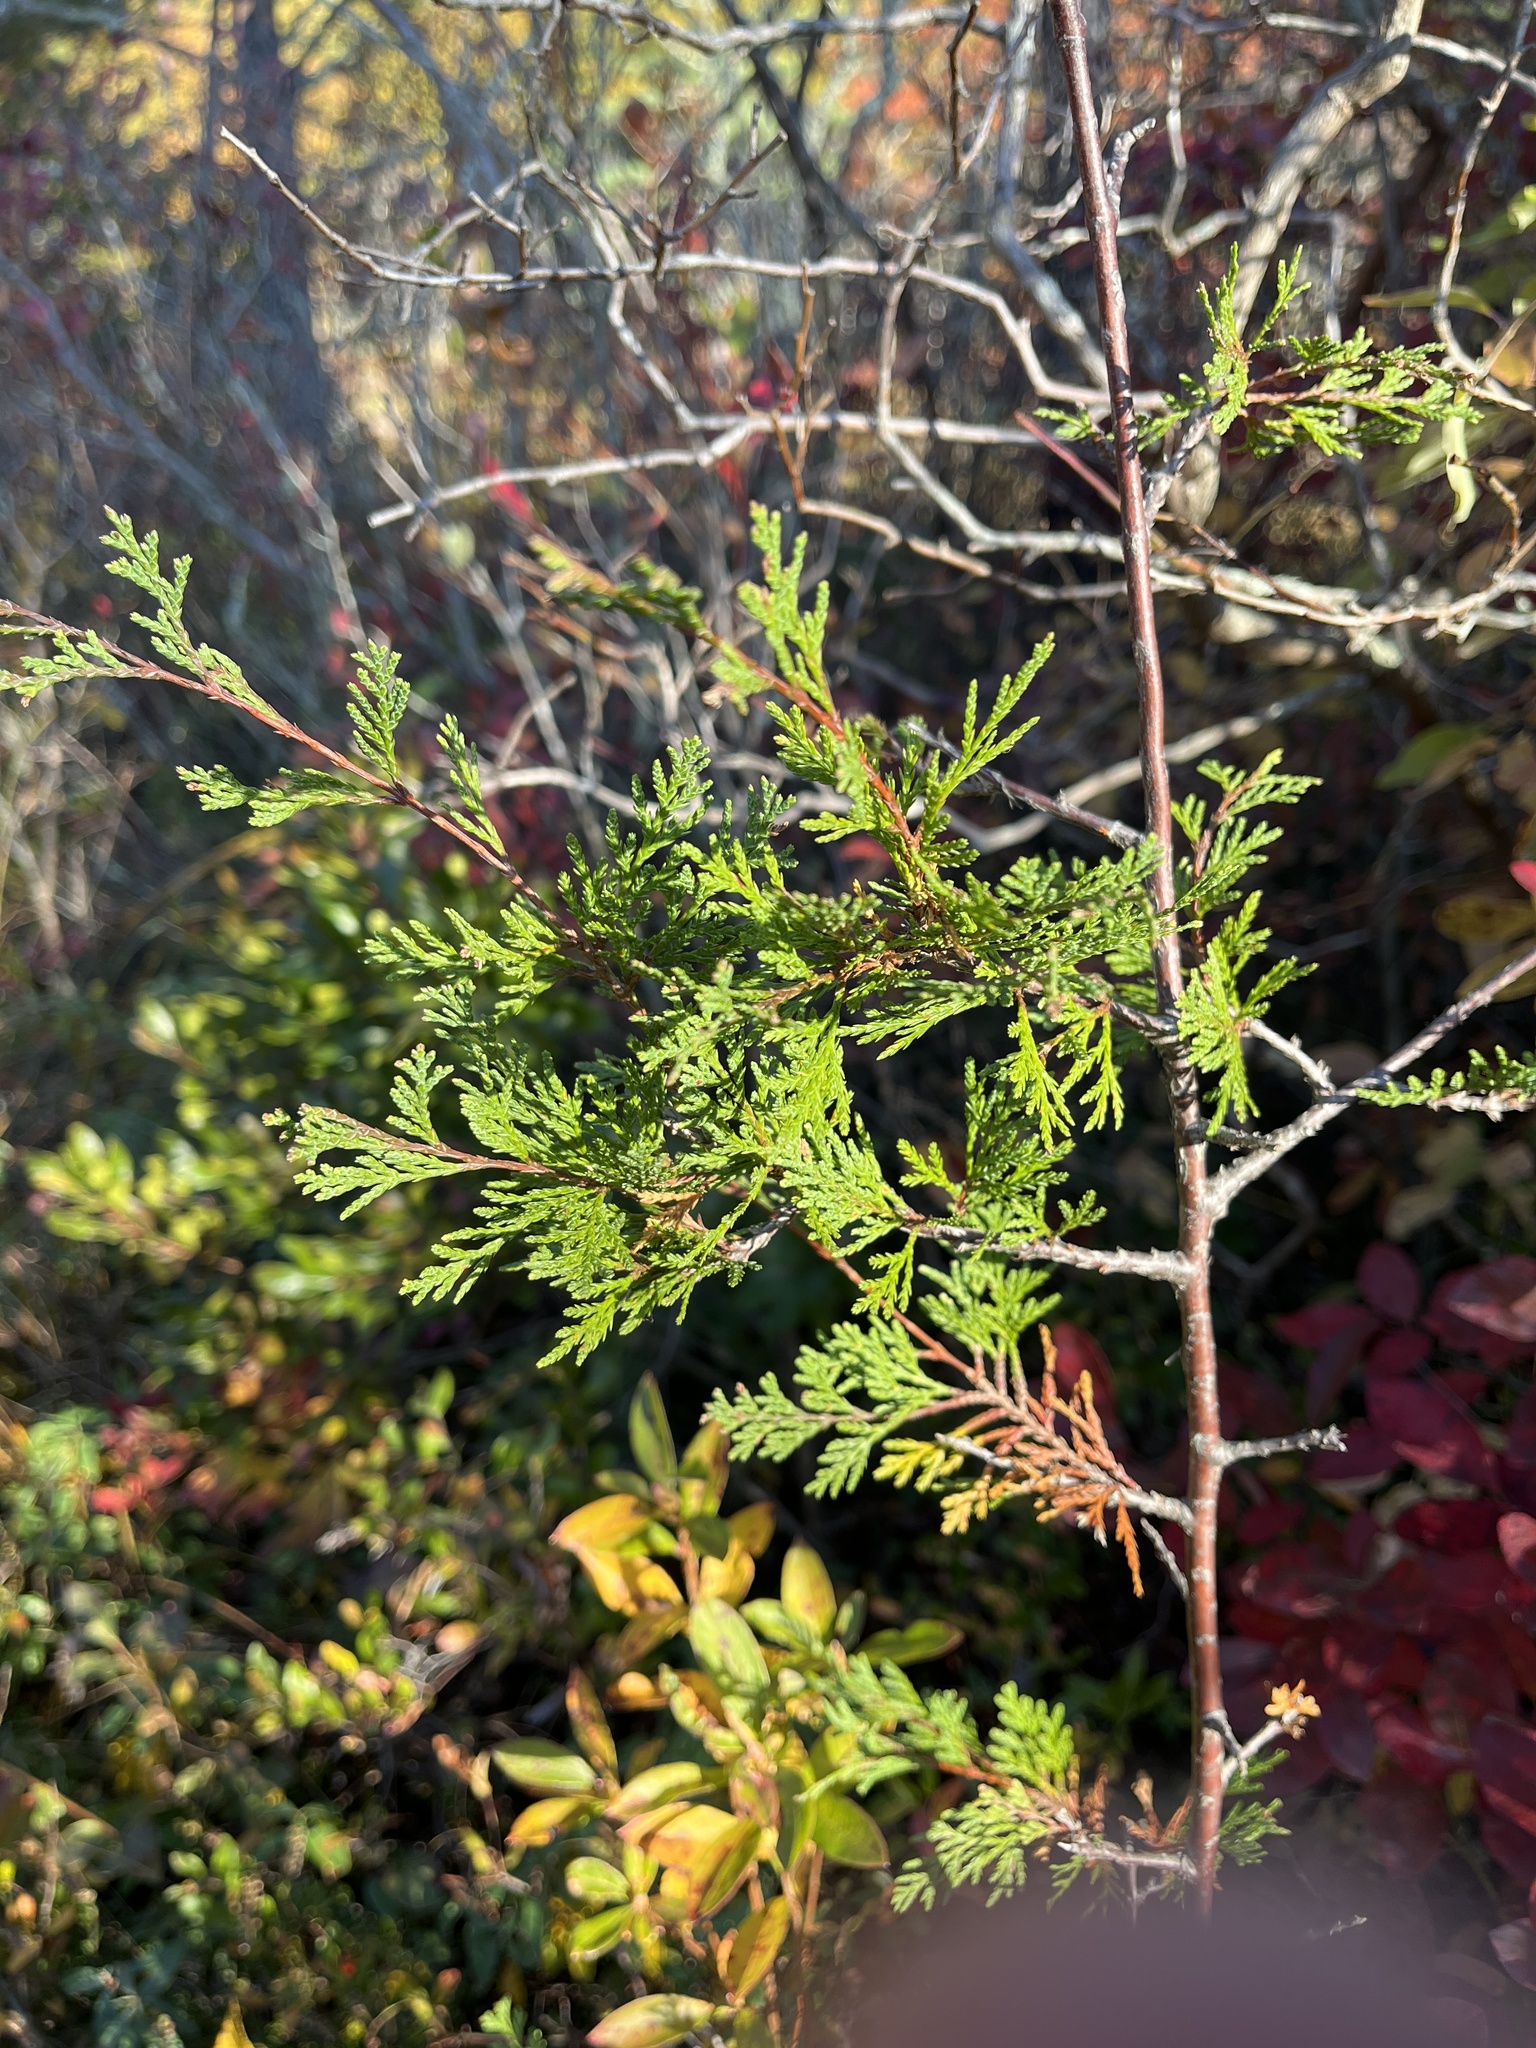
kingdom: Plantae
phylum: Tracheophyta
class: Pinopsida
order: Pinales
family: Cupressaceae
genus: Chamaecyparis
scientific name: Chamaecyparis thyoides
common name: Atlantic white cedar
